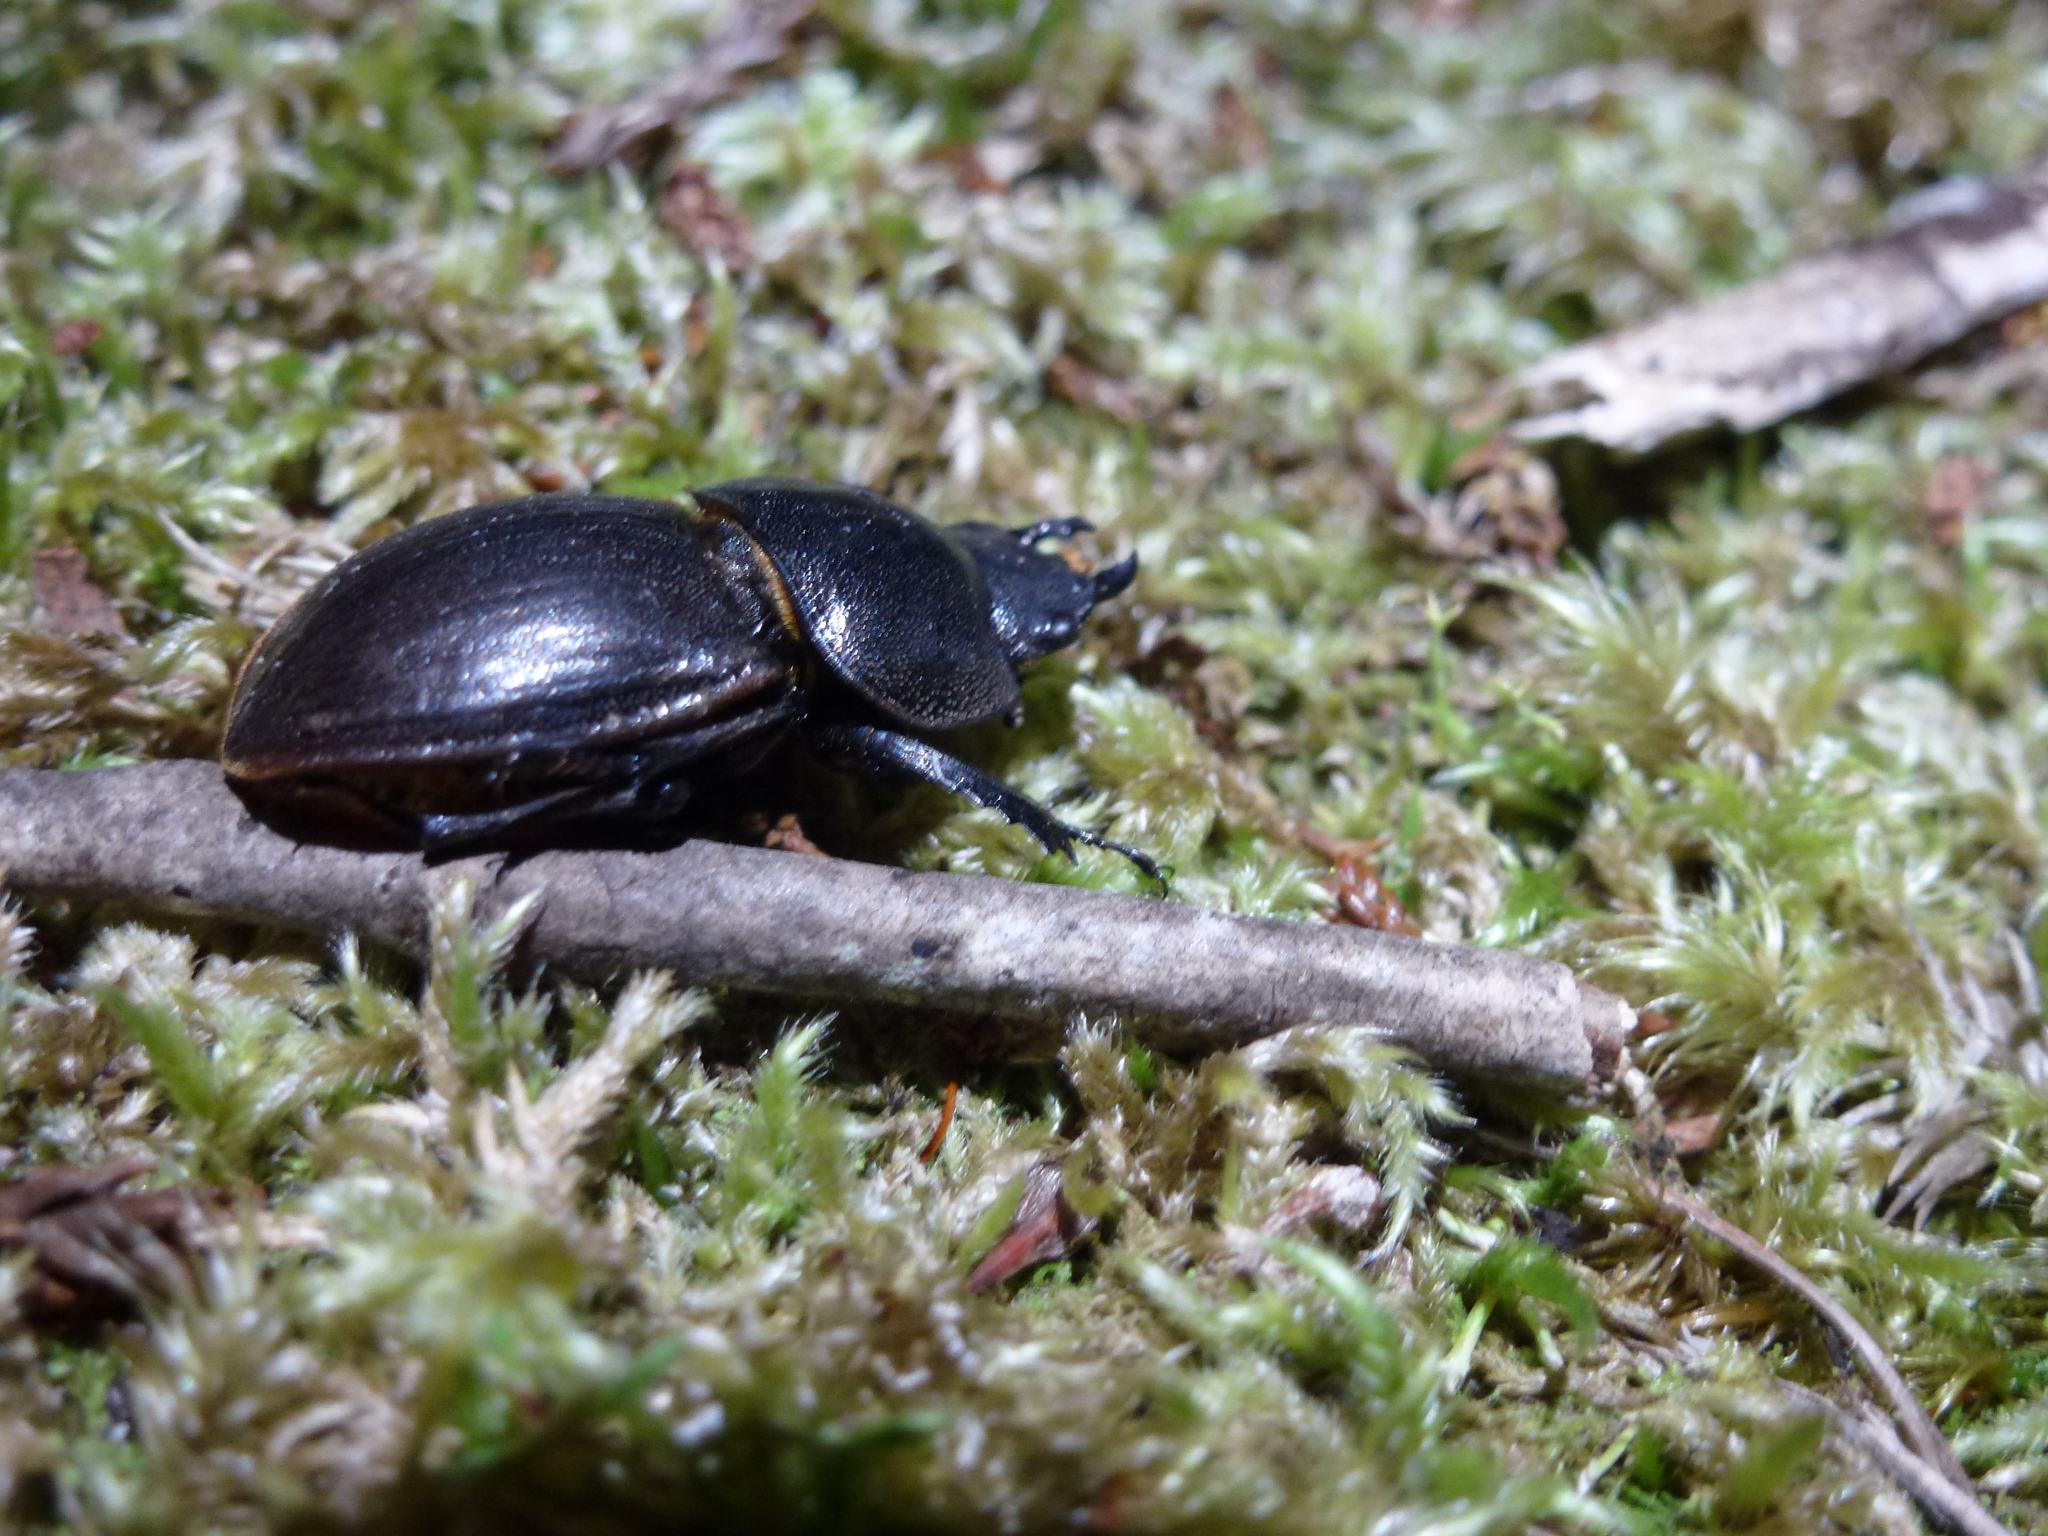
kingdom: Animalia
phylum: Arthropoda
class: Insecta
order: Coleoptera
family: Lucanidae
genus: Geodorcus
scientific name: Geodorcus helmsi
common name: Helm's stag beetle
